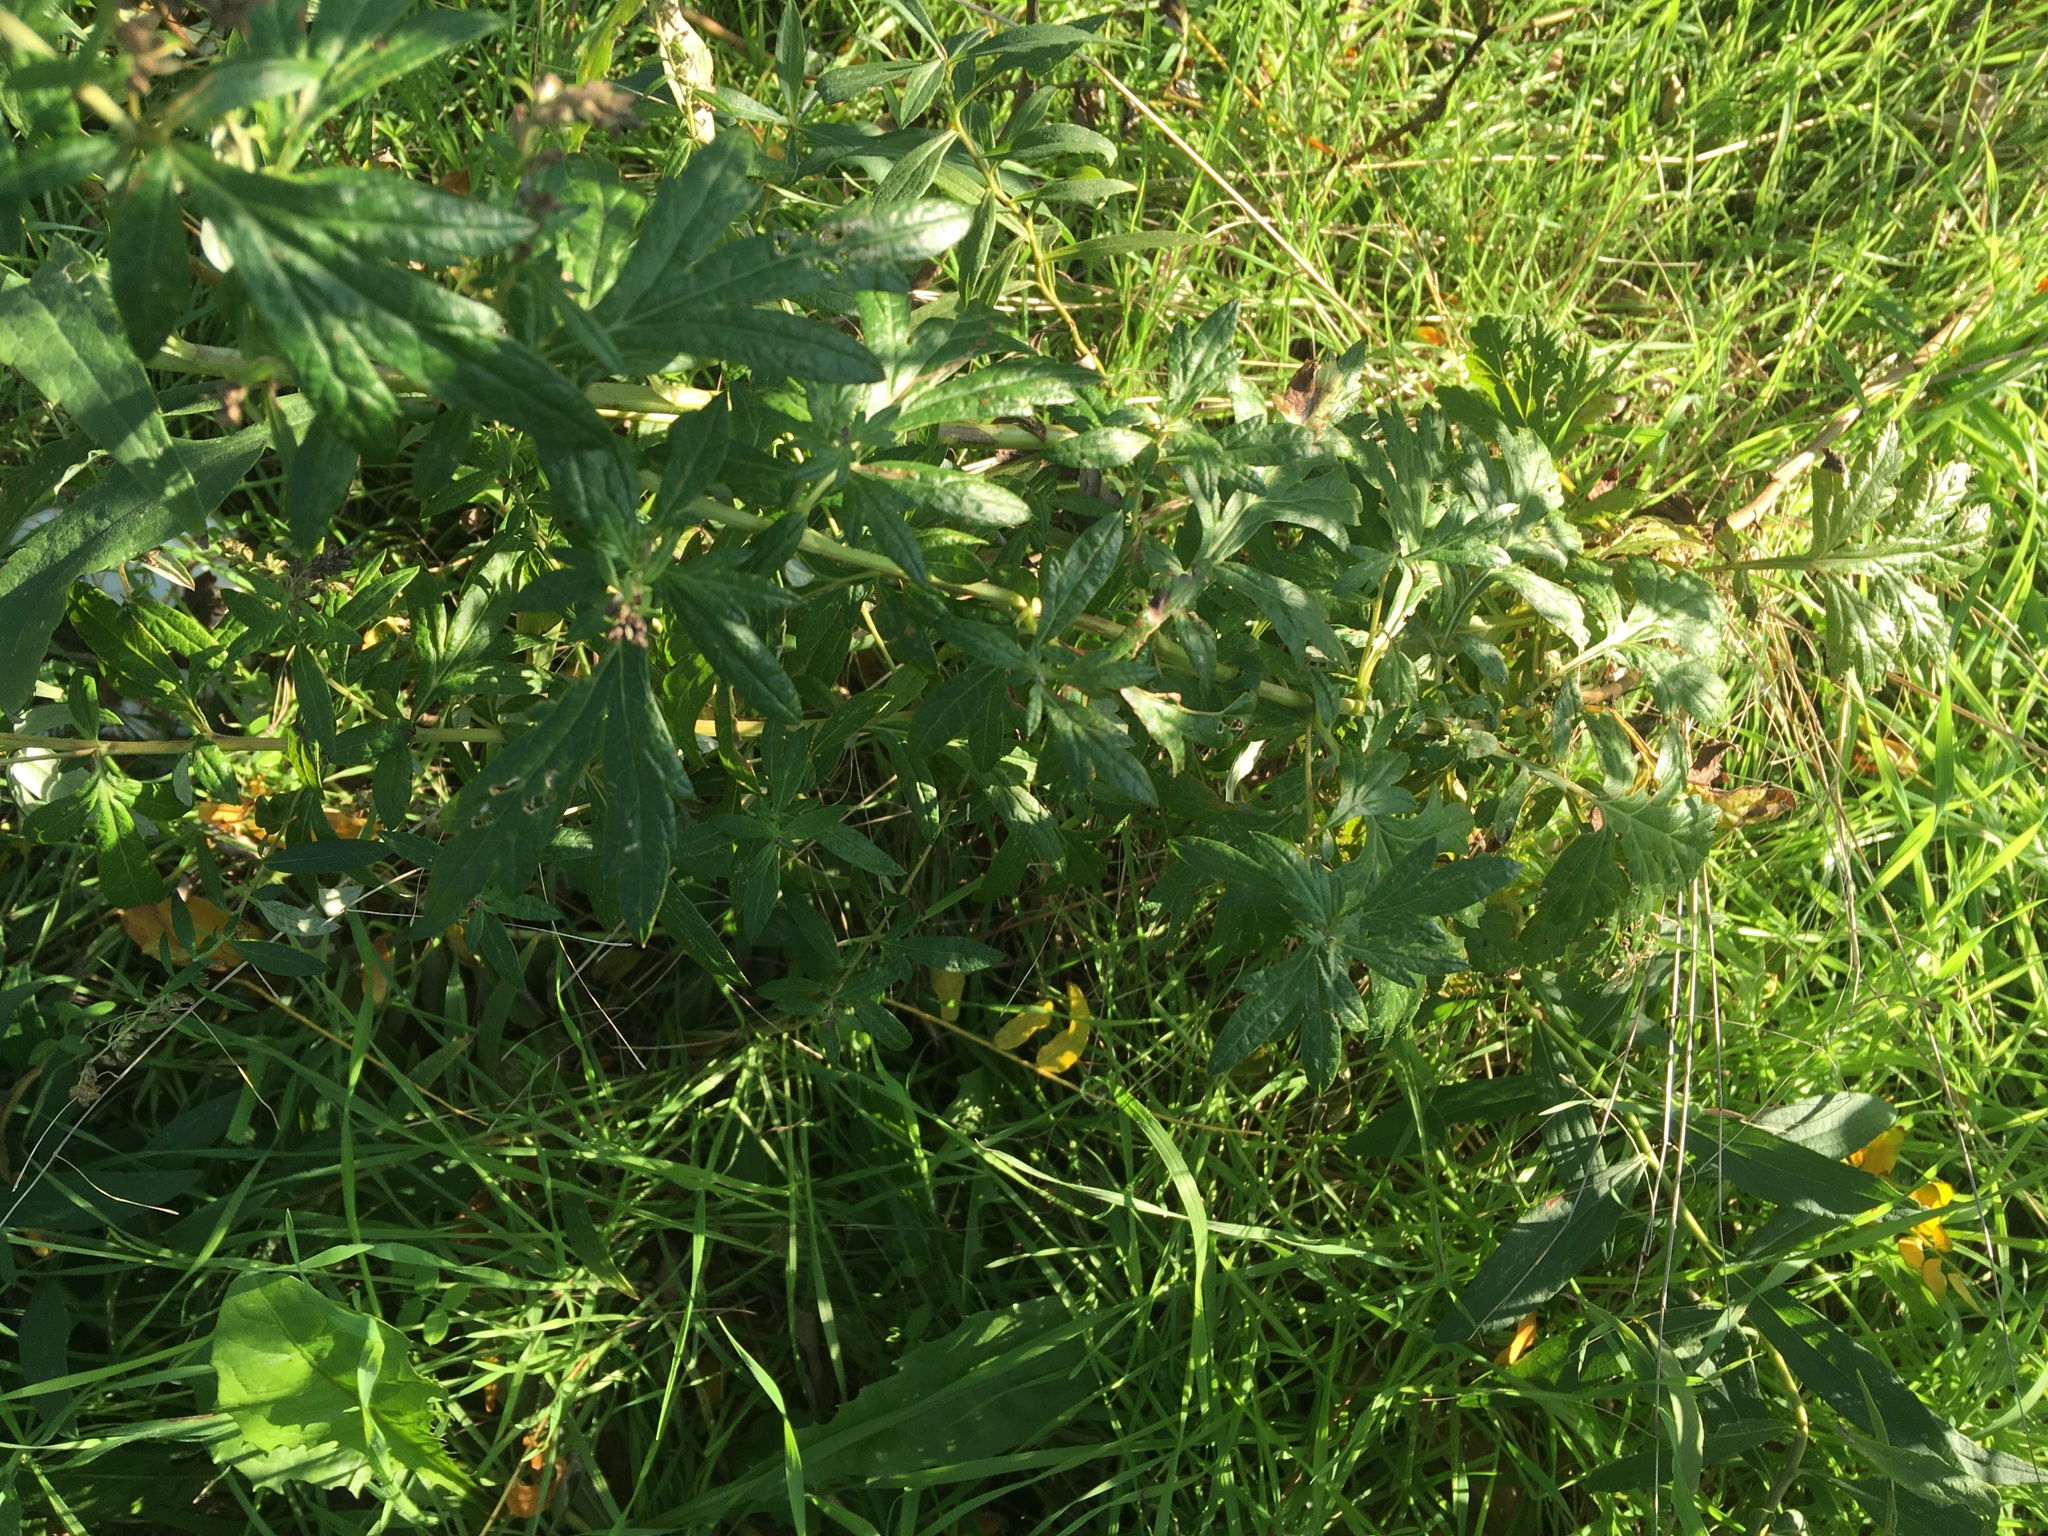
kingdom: Plantae
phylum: Tracheophyta
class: Magnoliopsida
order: Asterales
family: Asteraceae
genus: Artemisia
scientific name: Artemisia vulgaris
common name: Mugwort
